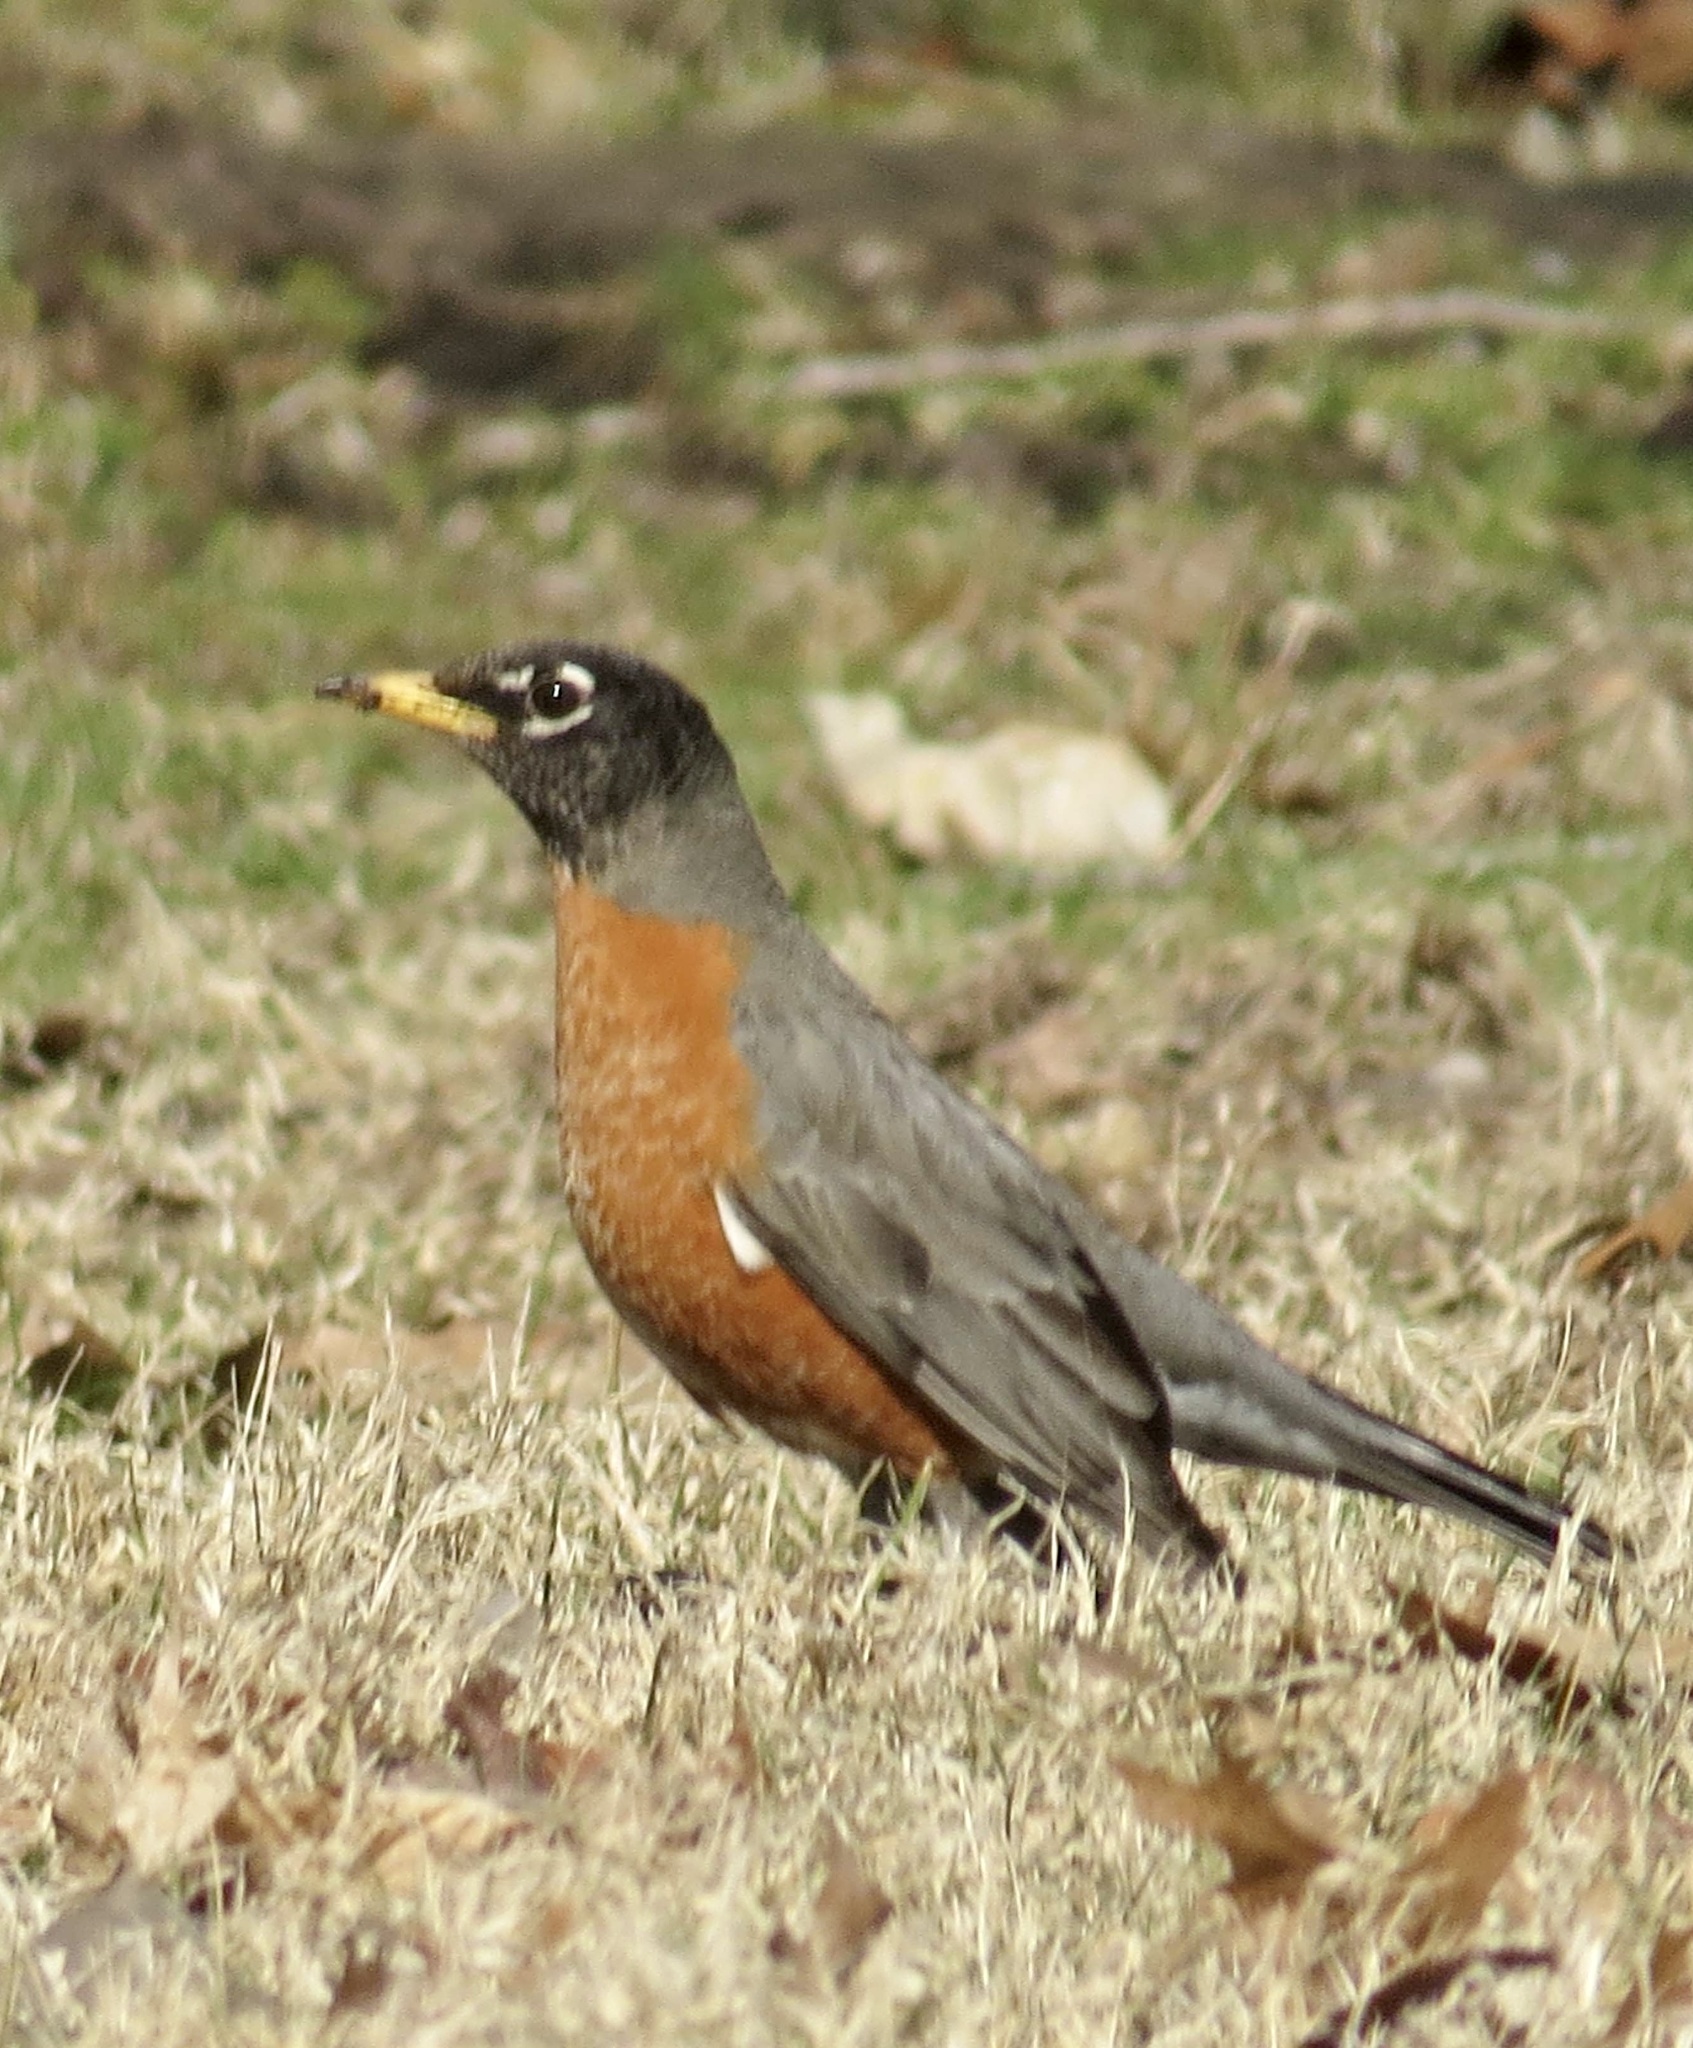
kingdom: Animalia
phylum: Chordata
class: Aves
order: Passeriformes
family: Turdidae
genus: Turdus
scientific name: Turdus migratorius
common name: American robin
